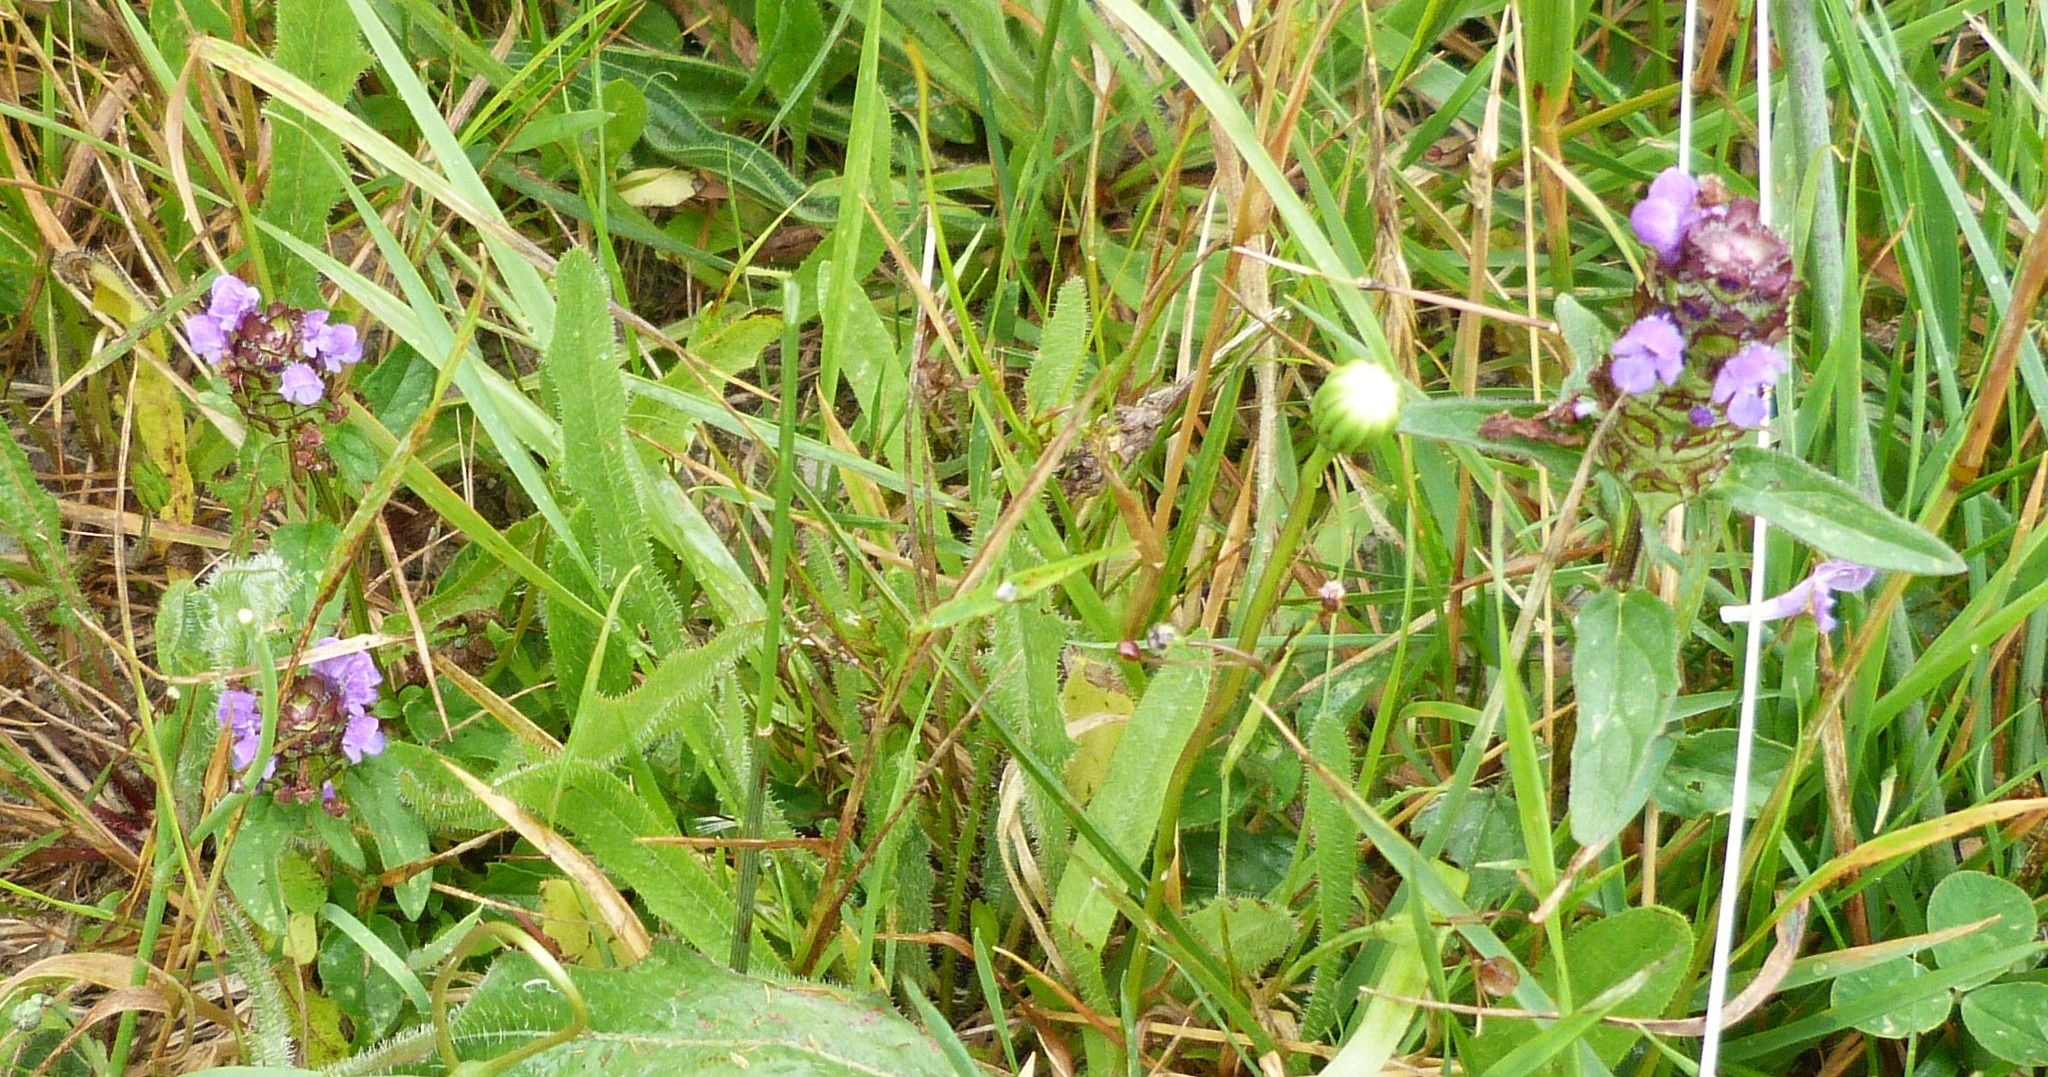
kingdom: Plantae
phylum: Tracheophyta
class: Magnoliopsida
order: Lamiales
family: Lamiaceae
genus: Prunella
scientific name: Prunella vulgaris
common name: Heal-all
